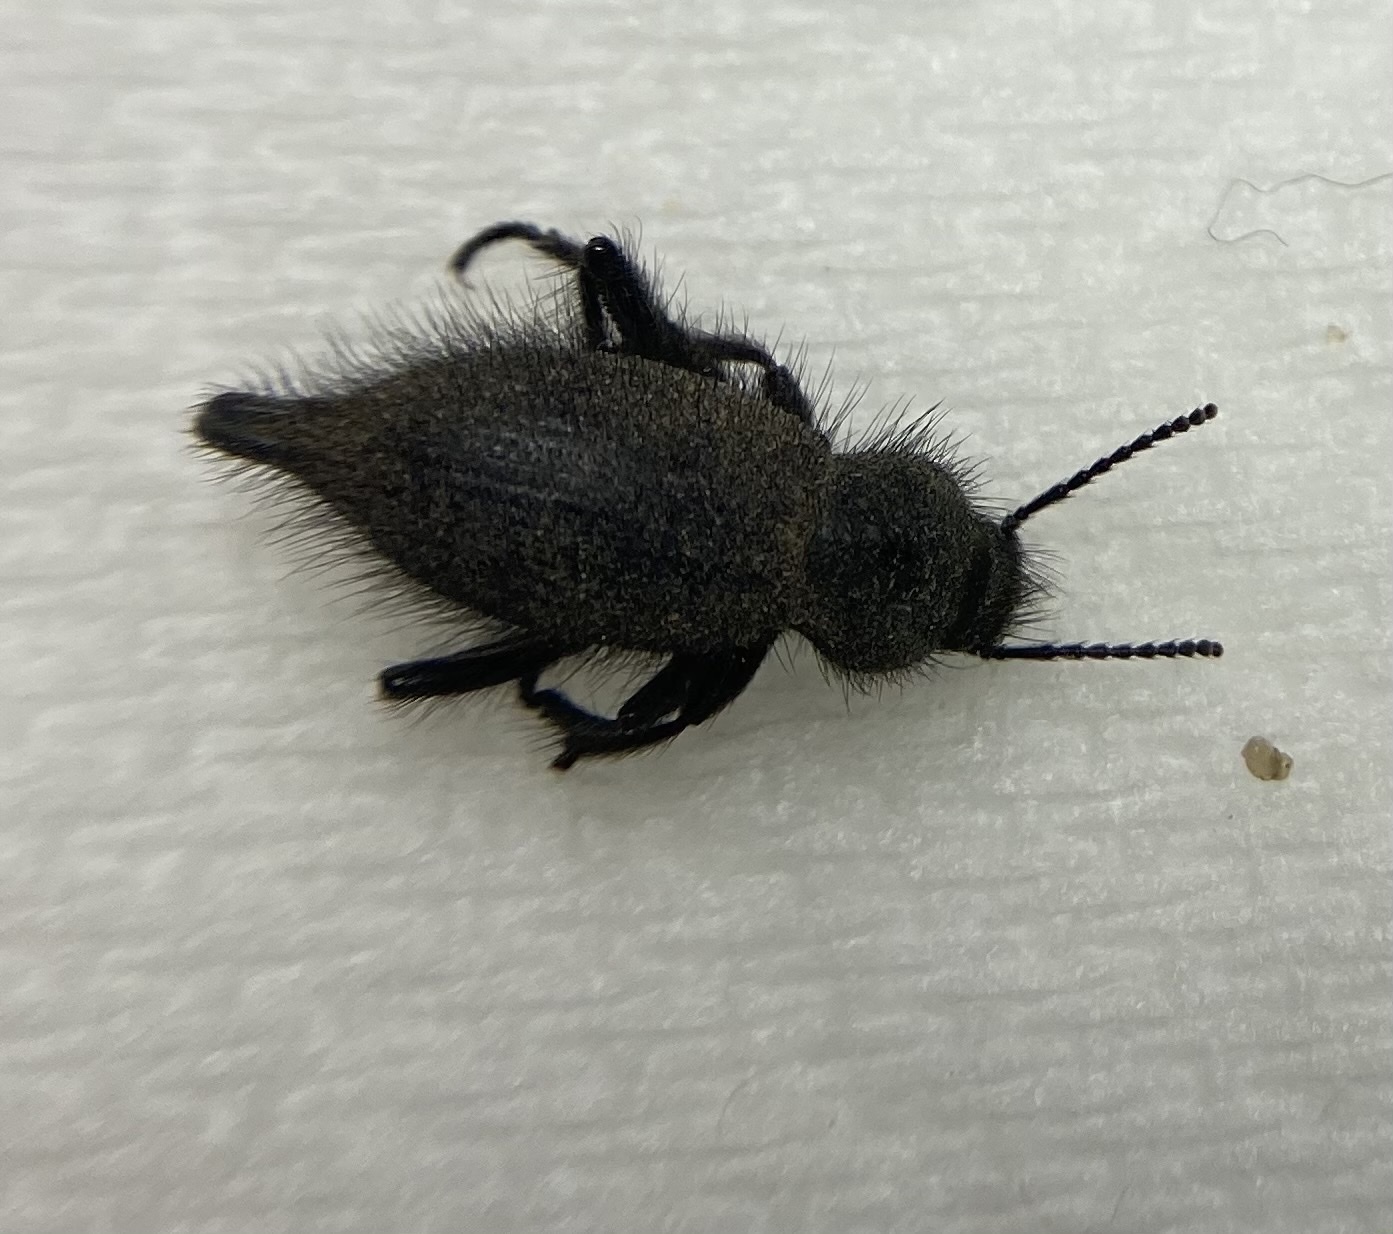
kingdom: Animalia
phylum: Arthropoda
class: Insecta
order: Coleoptera
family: Tenebrionidae
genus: Eleodes
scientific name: Eleodes tribulus
